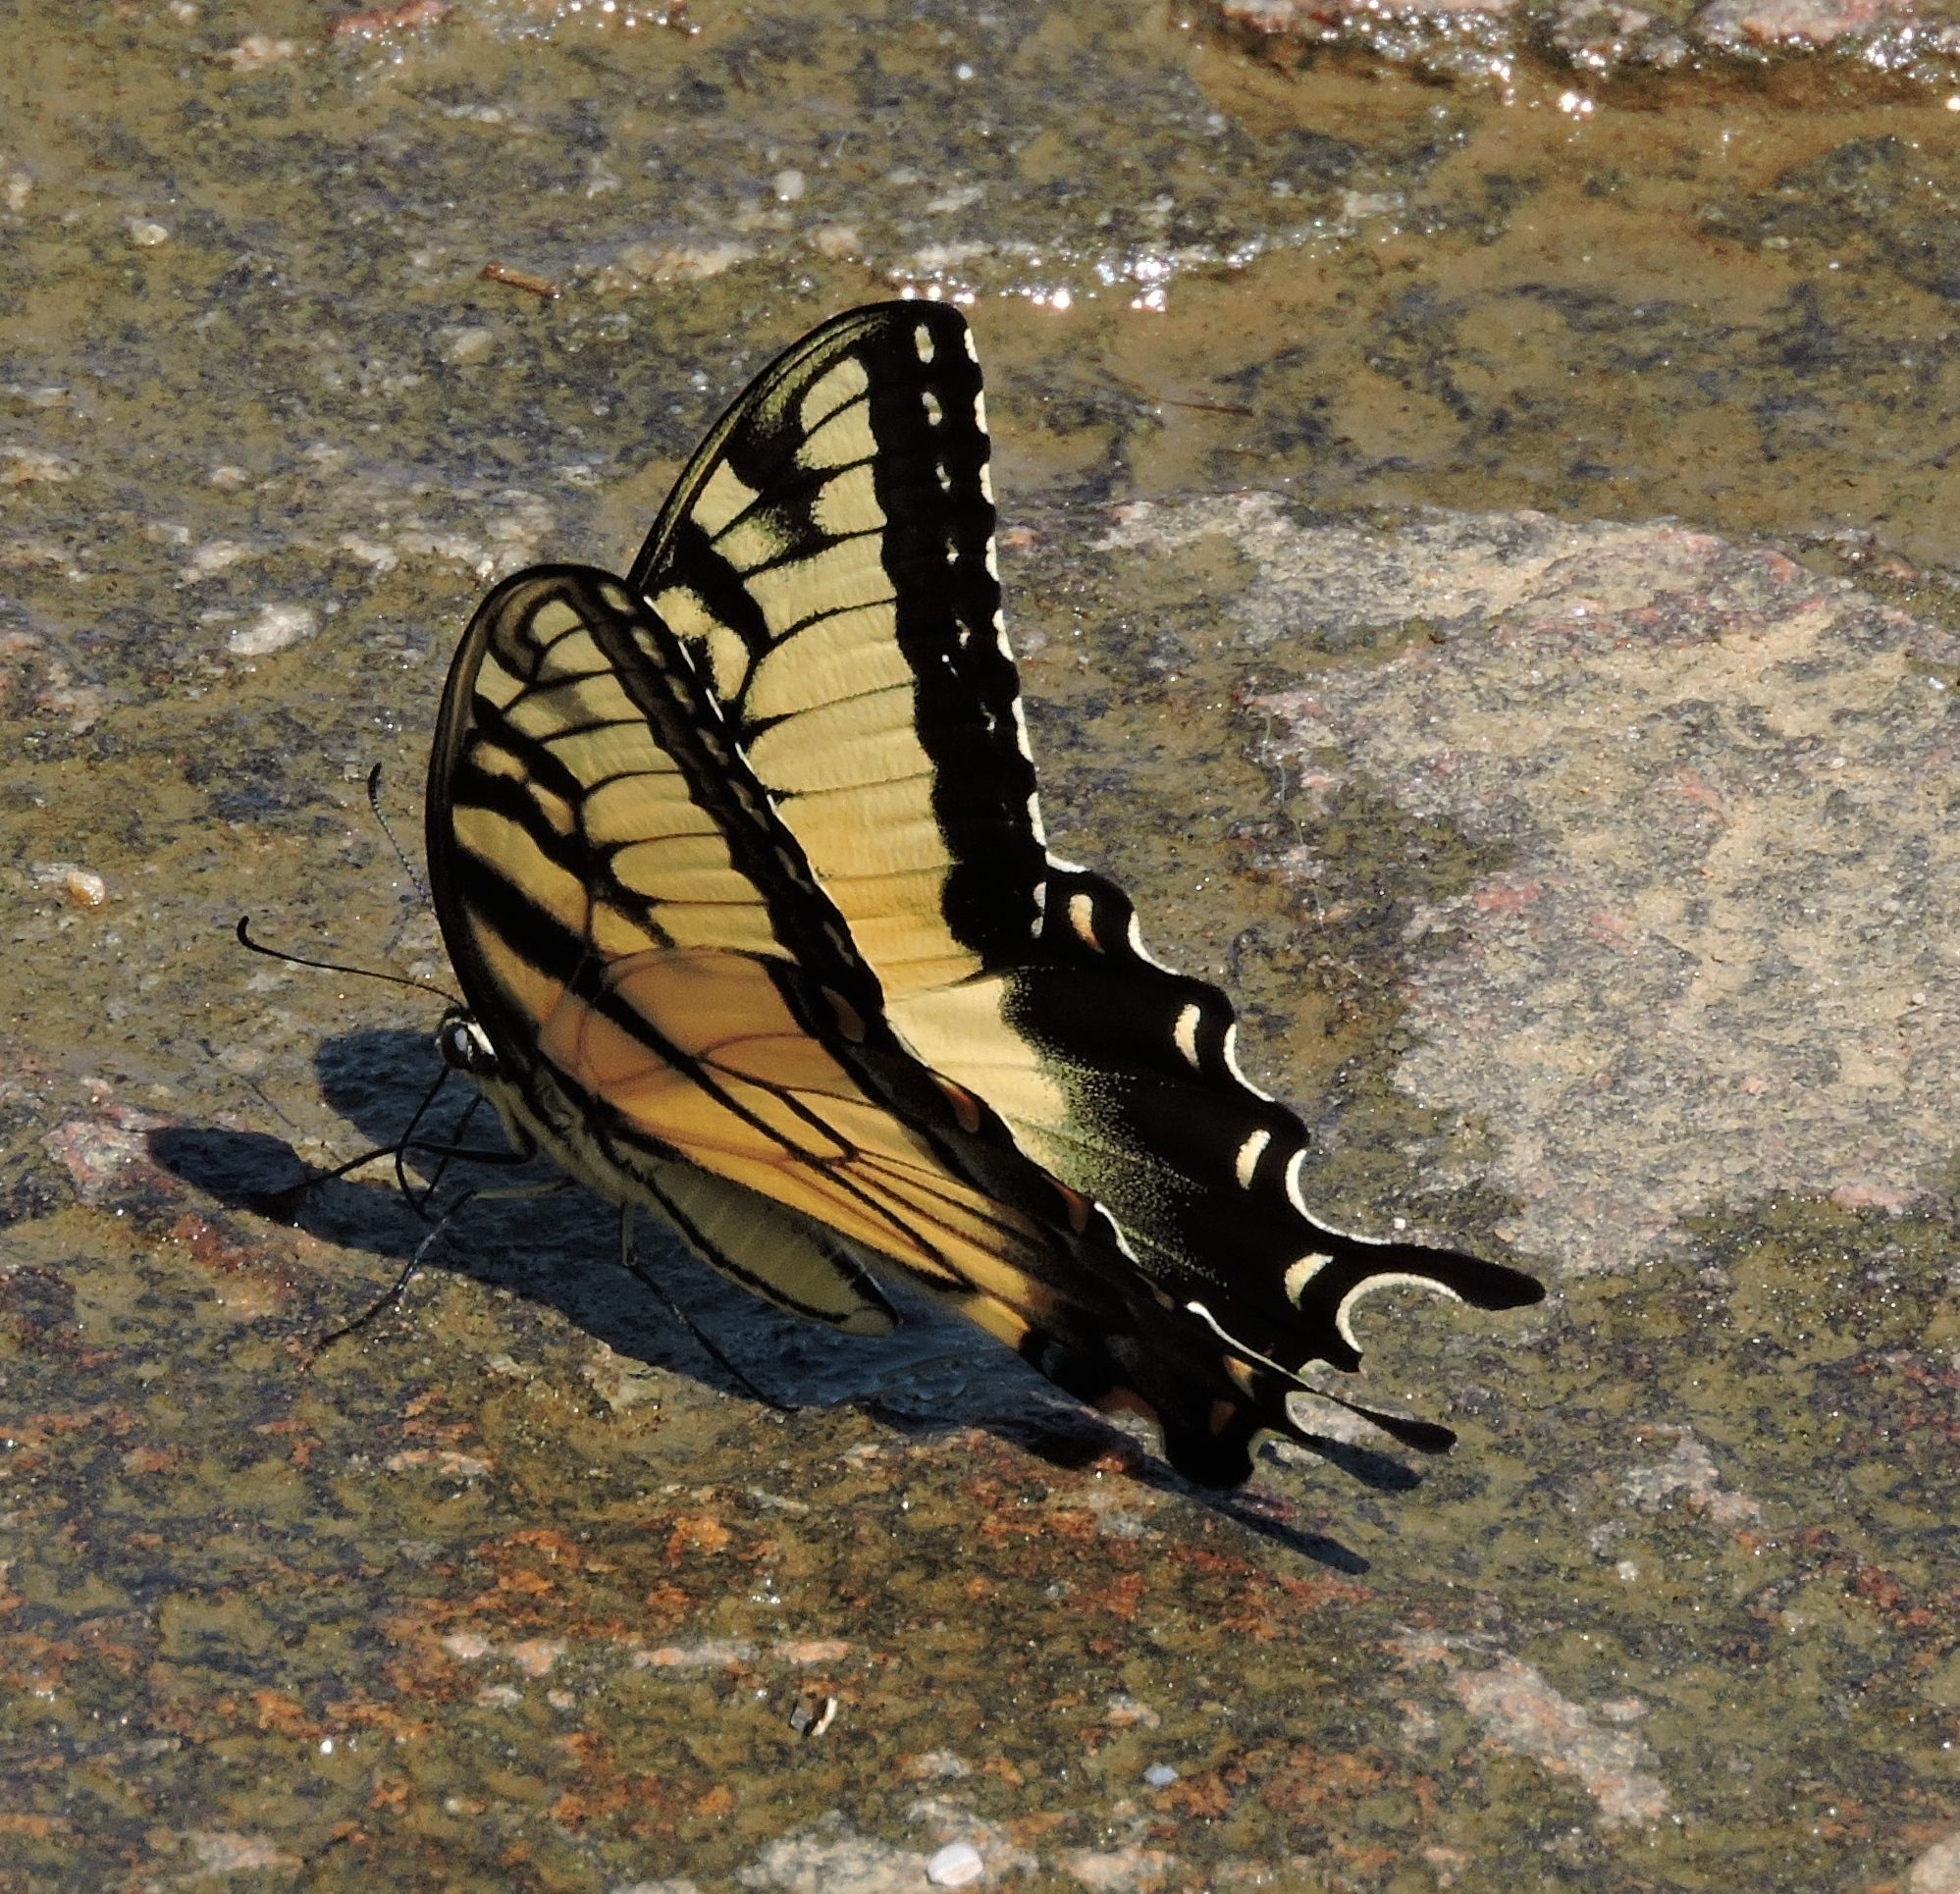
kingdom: Animalia
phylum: Arthropoda
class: Insecta
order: Lepidoptera
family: Papilionidae
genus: Papilio
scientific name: Papilio glaucus
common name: Tiger swallowtail
